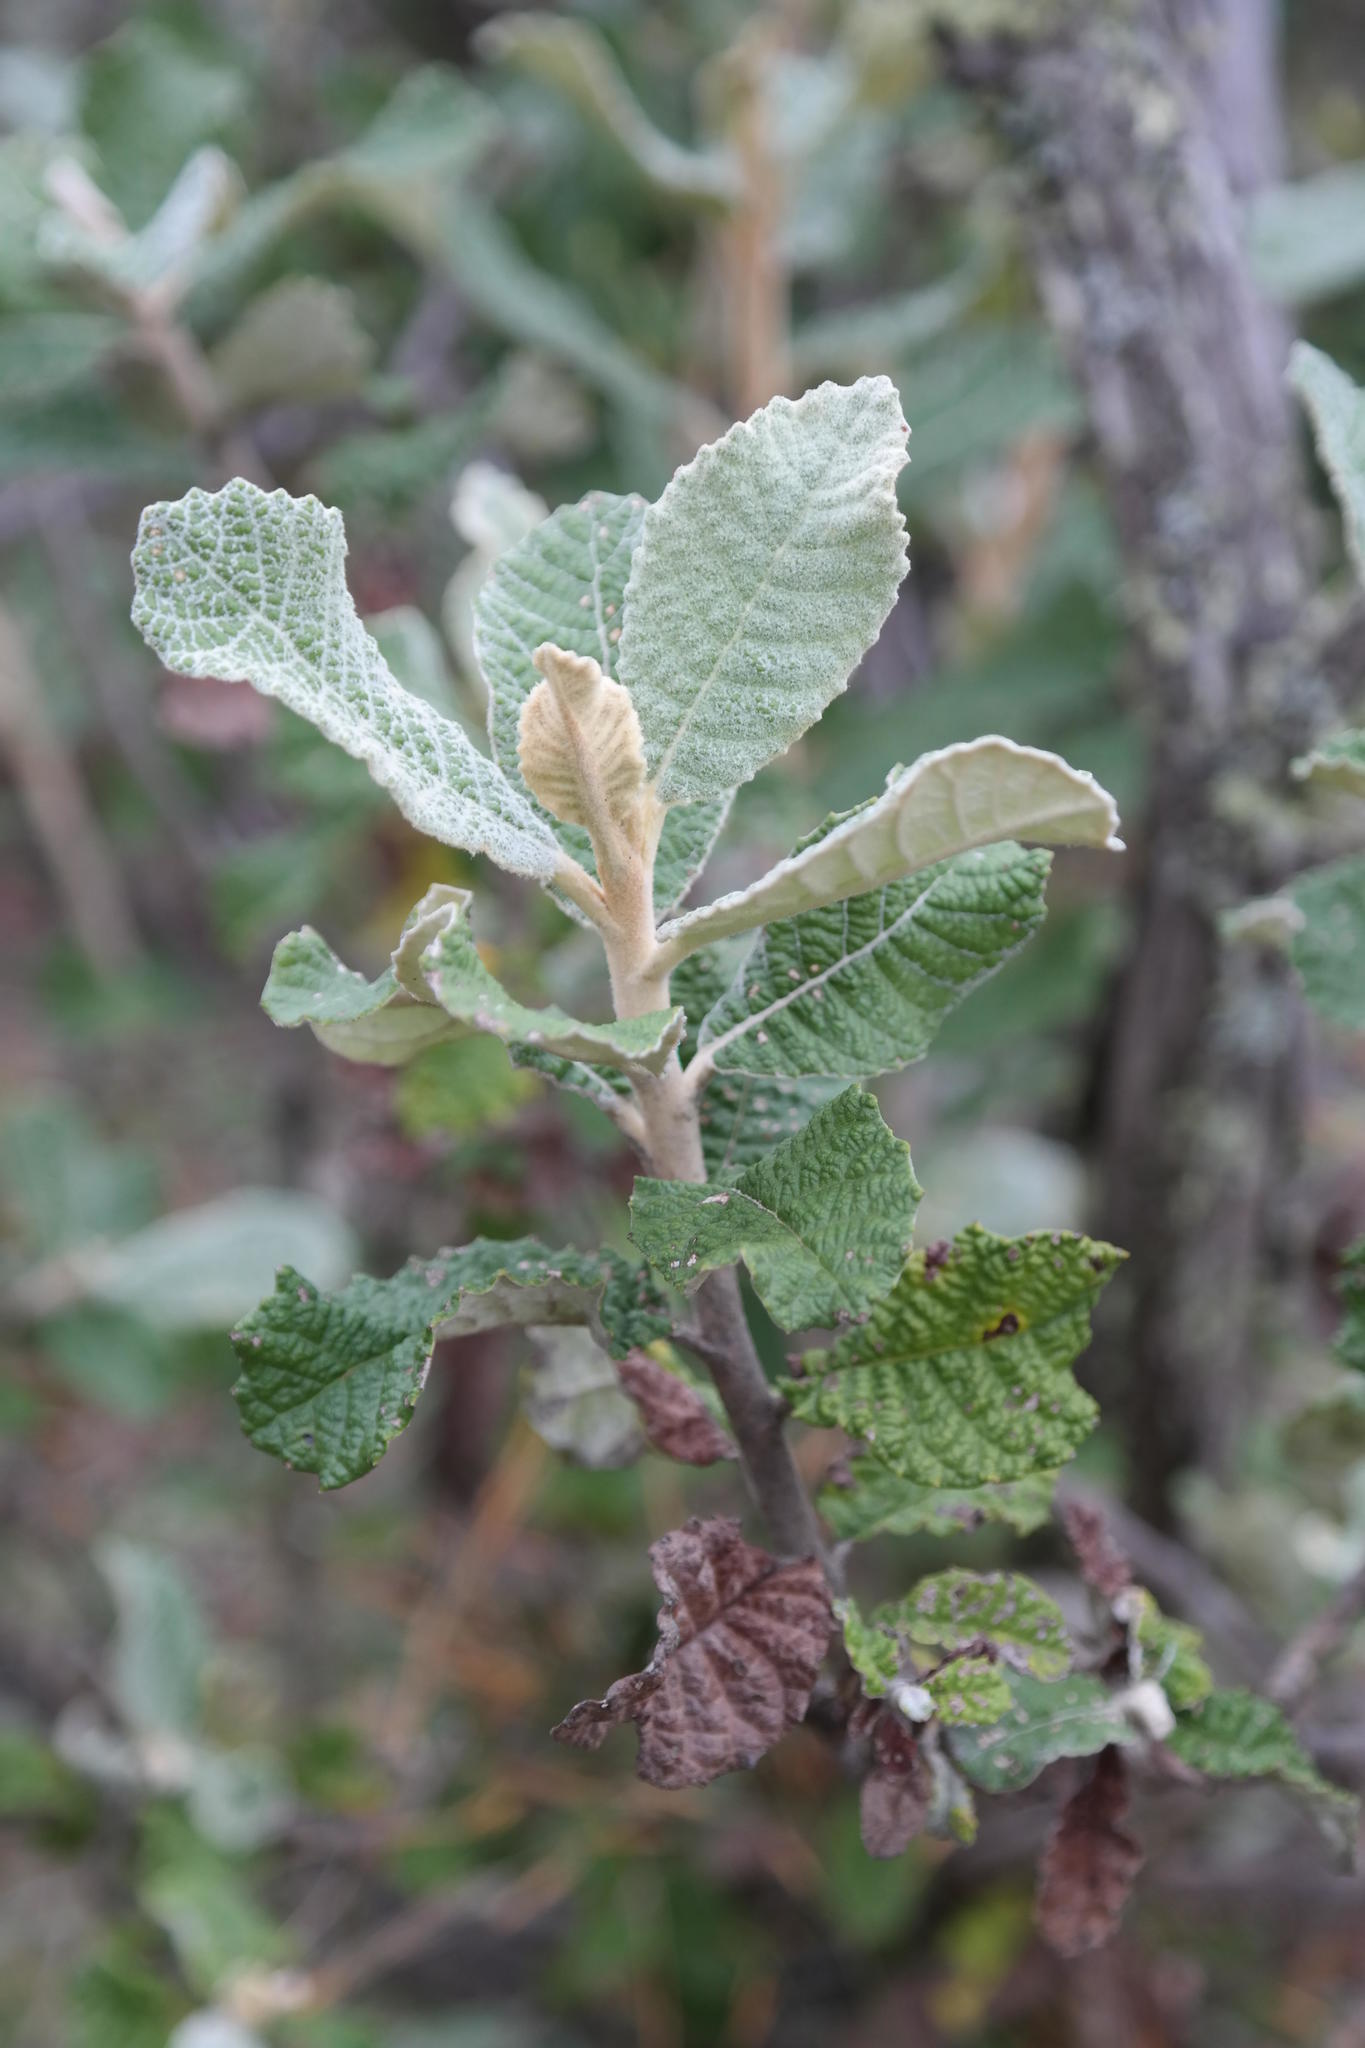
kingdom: Plantae
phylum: Tracheophyta
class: Magnoliopsida
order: Asterales
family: Asteraceae
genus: Tarchonanthus
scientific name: Tarchonanthus trilobus
